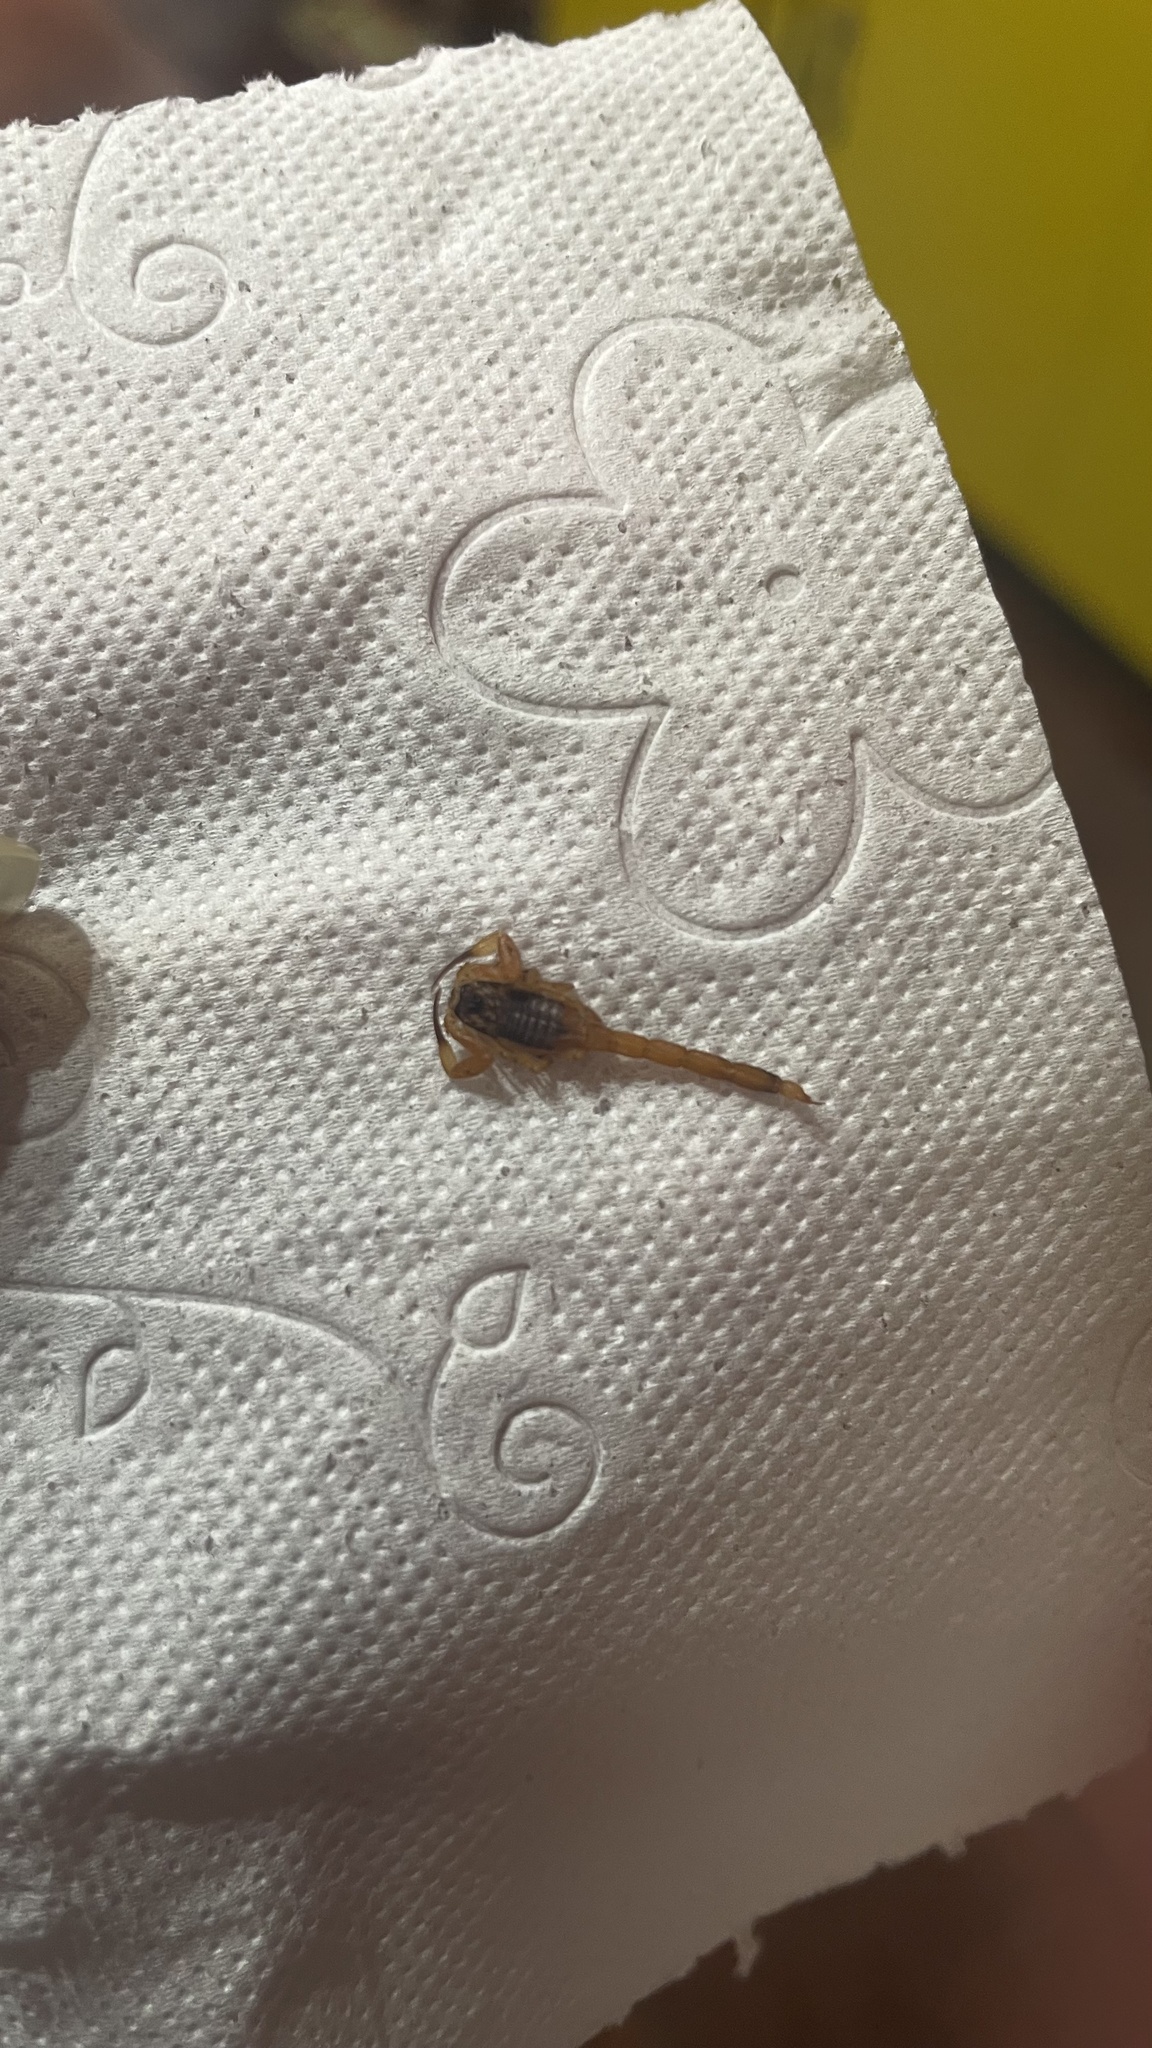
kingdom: Animalia
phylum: Arthropoda
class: Arachnida
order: Scorpiones
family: Buthidae
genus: Tityus
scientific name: Tityus serrulatus
